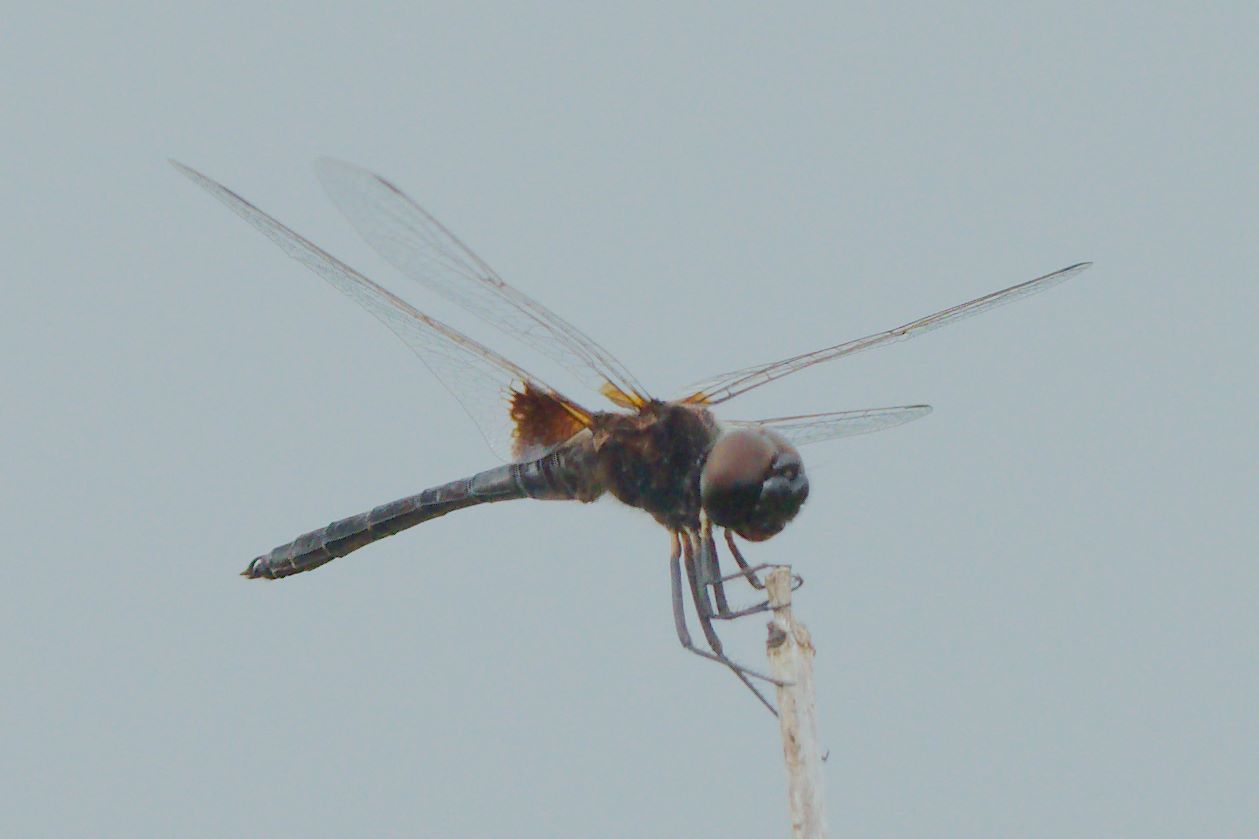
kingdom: Animalia
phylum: Arthropoda
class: Insecta
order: Odonata
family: Libellulidae
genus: Macrodiplax
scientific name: Macrodiplax balteata
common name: Marl pennant
